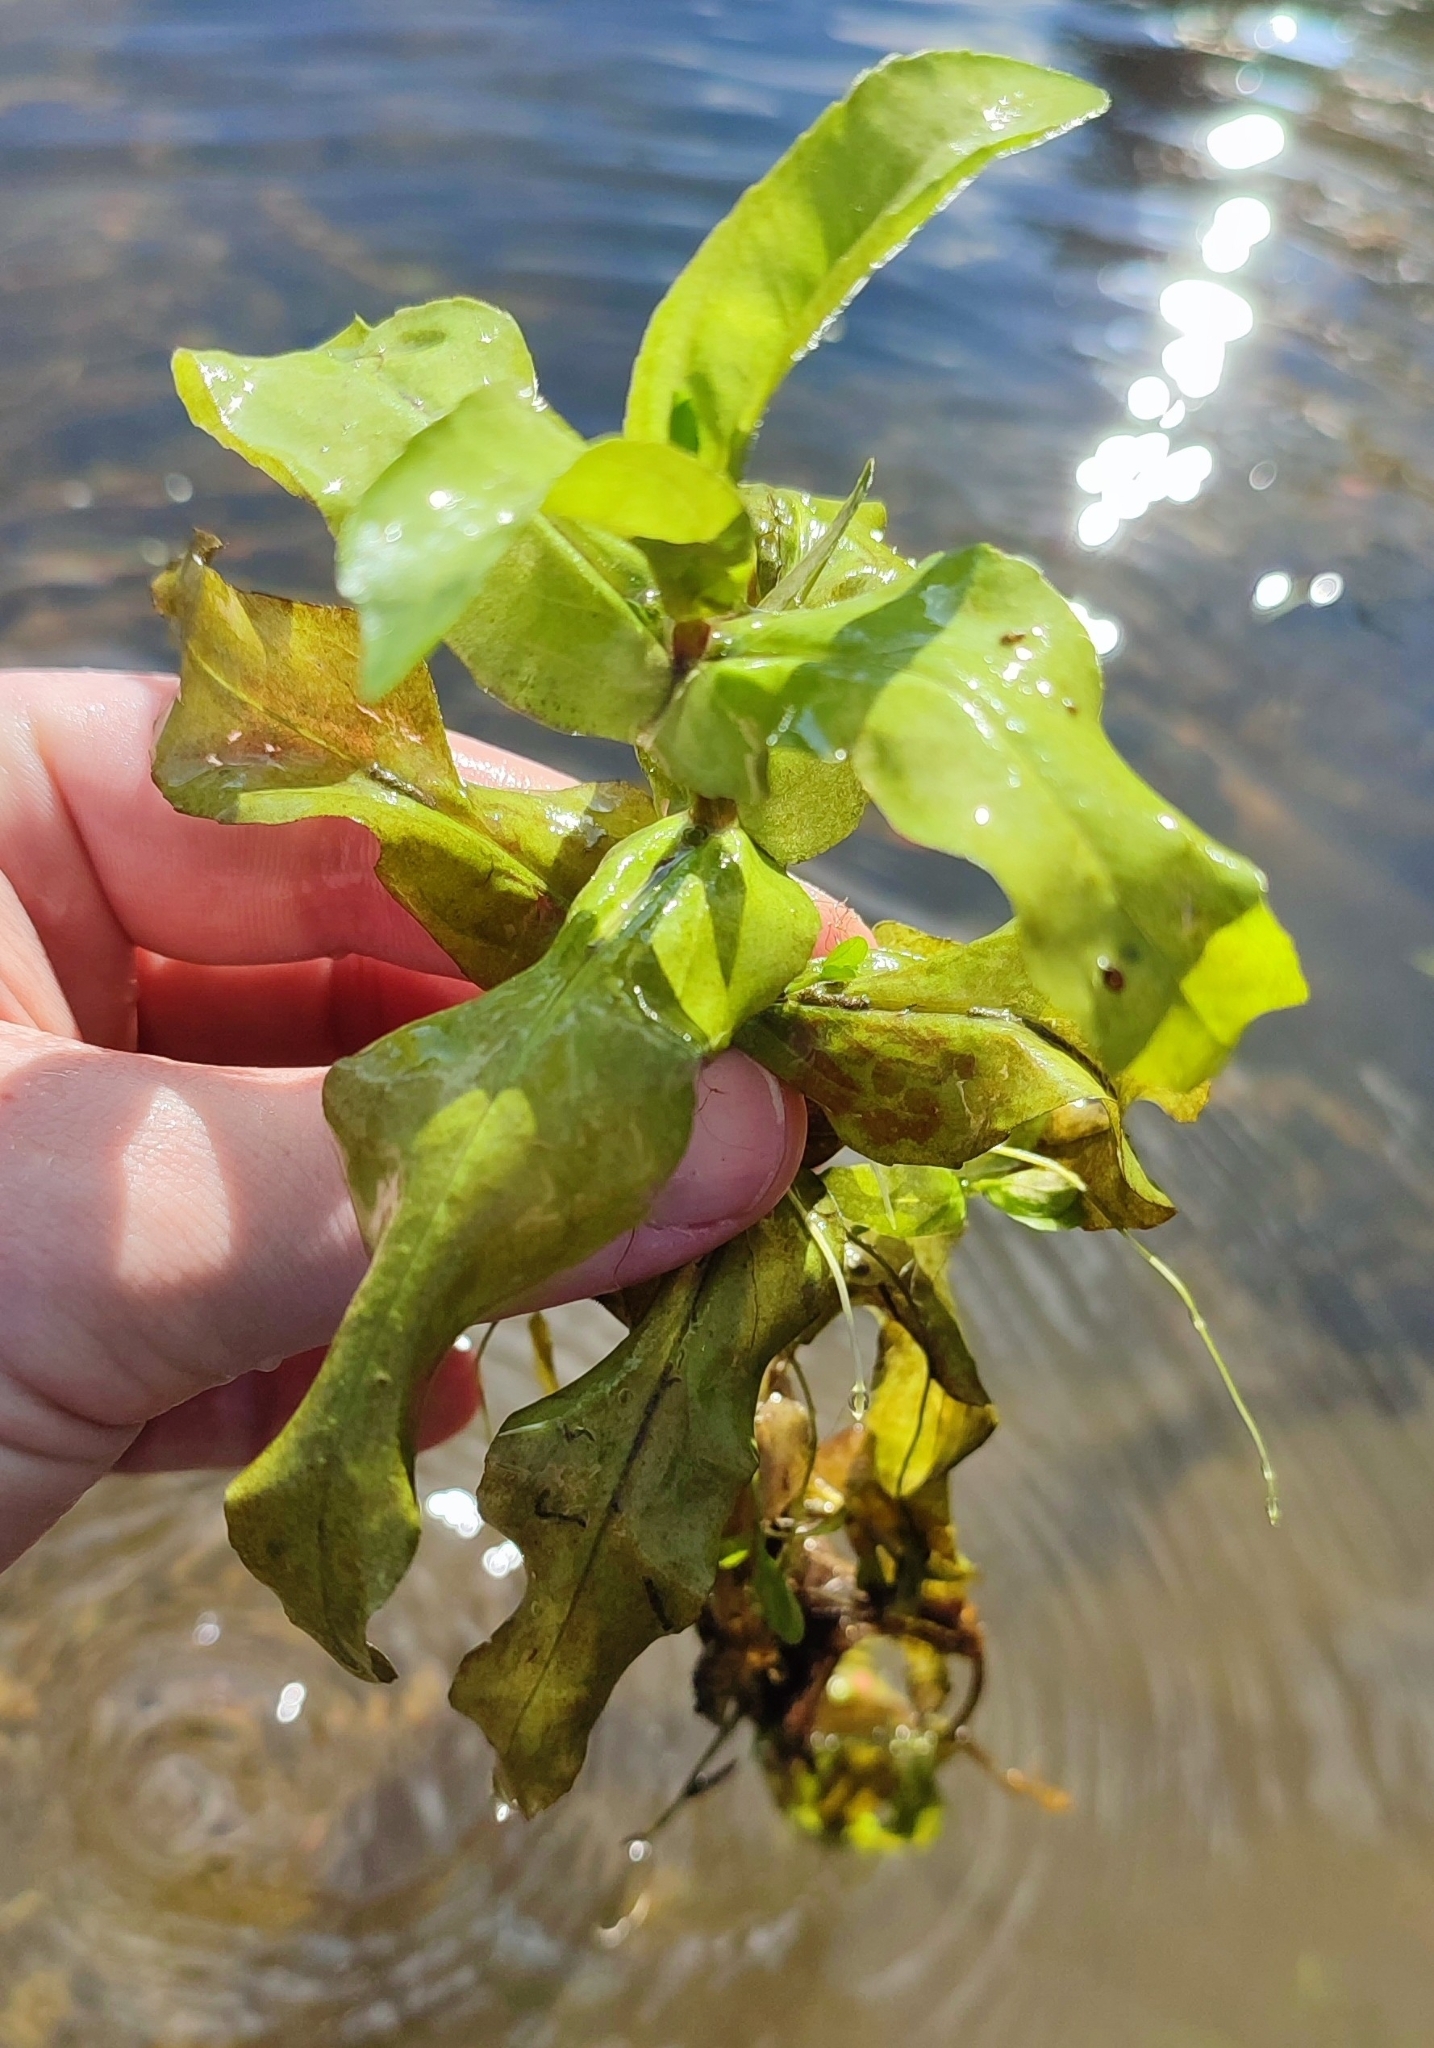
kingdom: Plantae
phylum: Tracheophyta
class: Magnoliopsida
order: Lamiales
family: Plantaginaceae
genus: Veronica
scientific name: Veronica anagallis-aquatica
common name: Water speedwell
